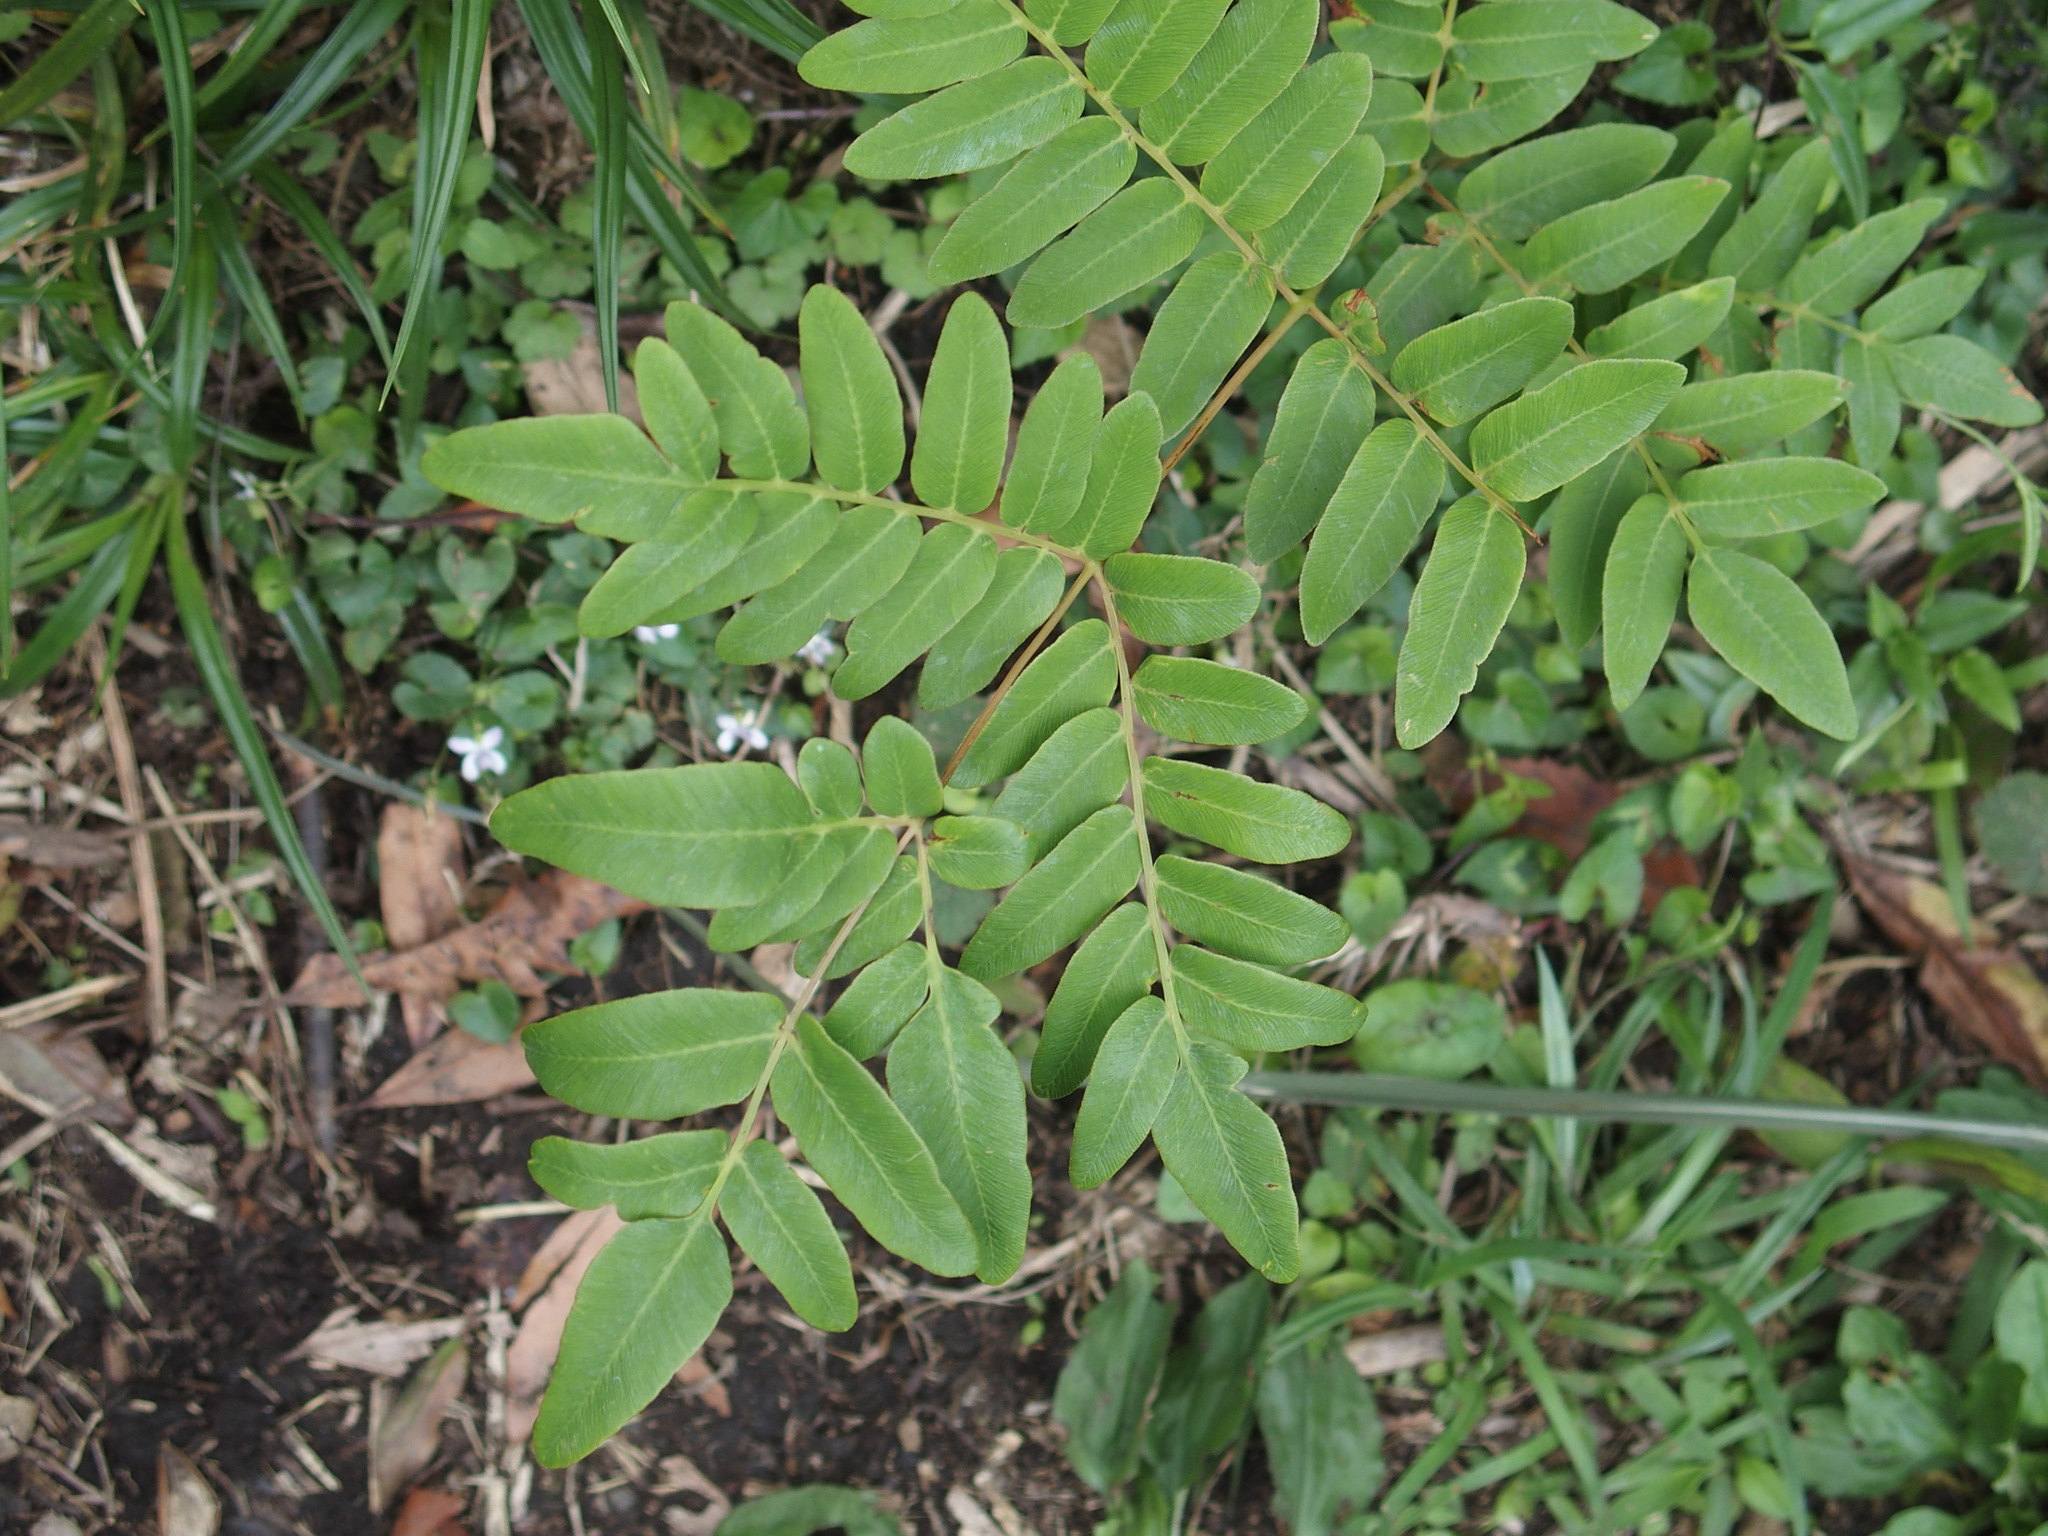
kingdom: Plantae
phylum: Tracheophyta
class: Polypodiopsida
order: Osmundales
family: Osmundaceae
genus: Osmunda
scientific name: Osmunda japonica
